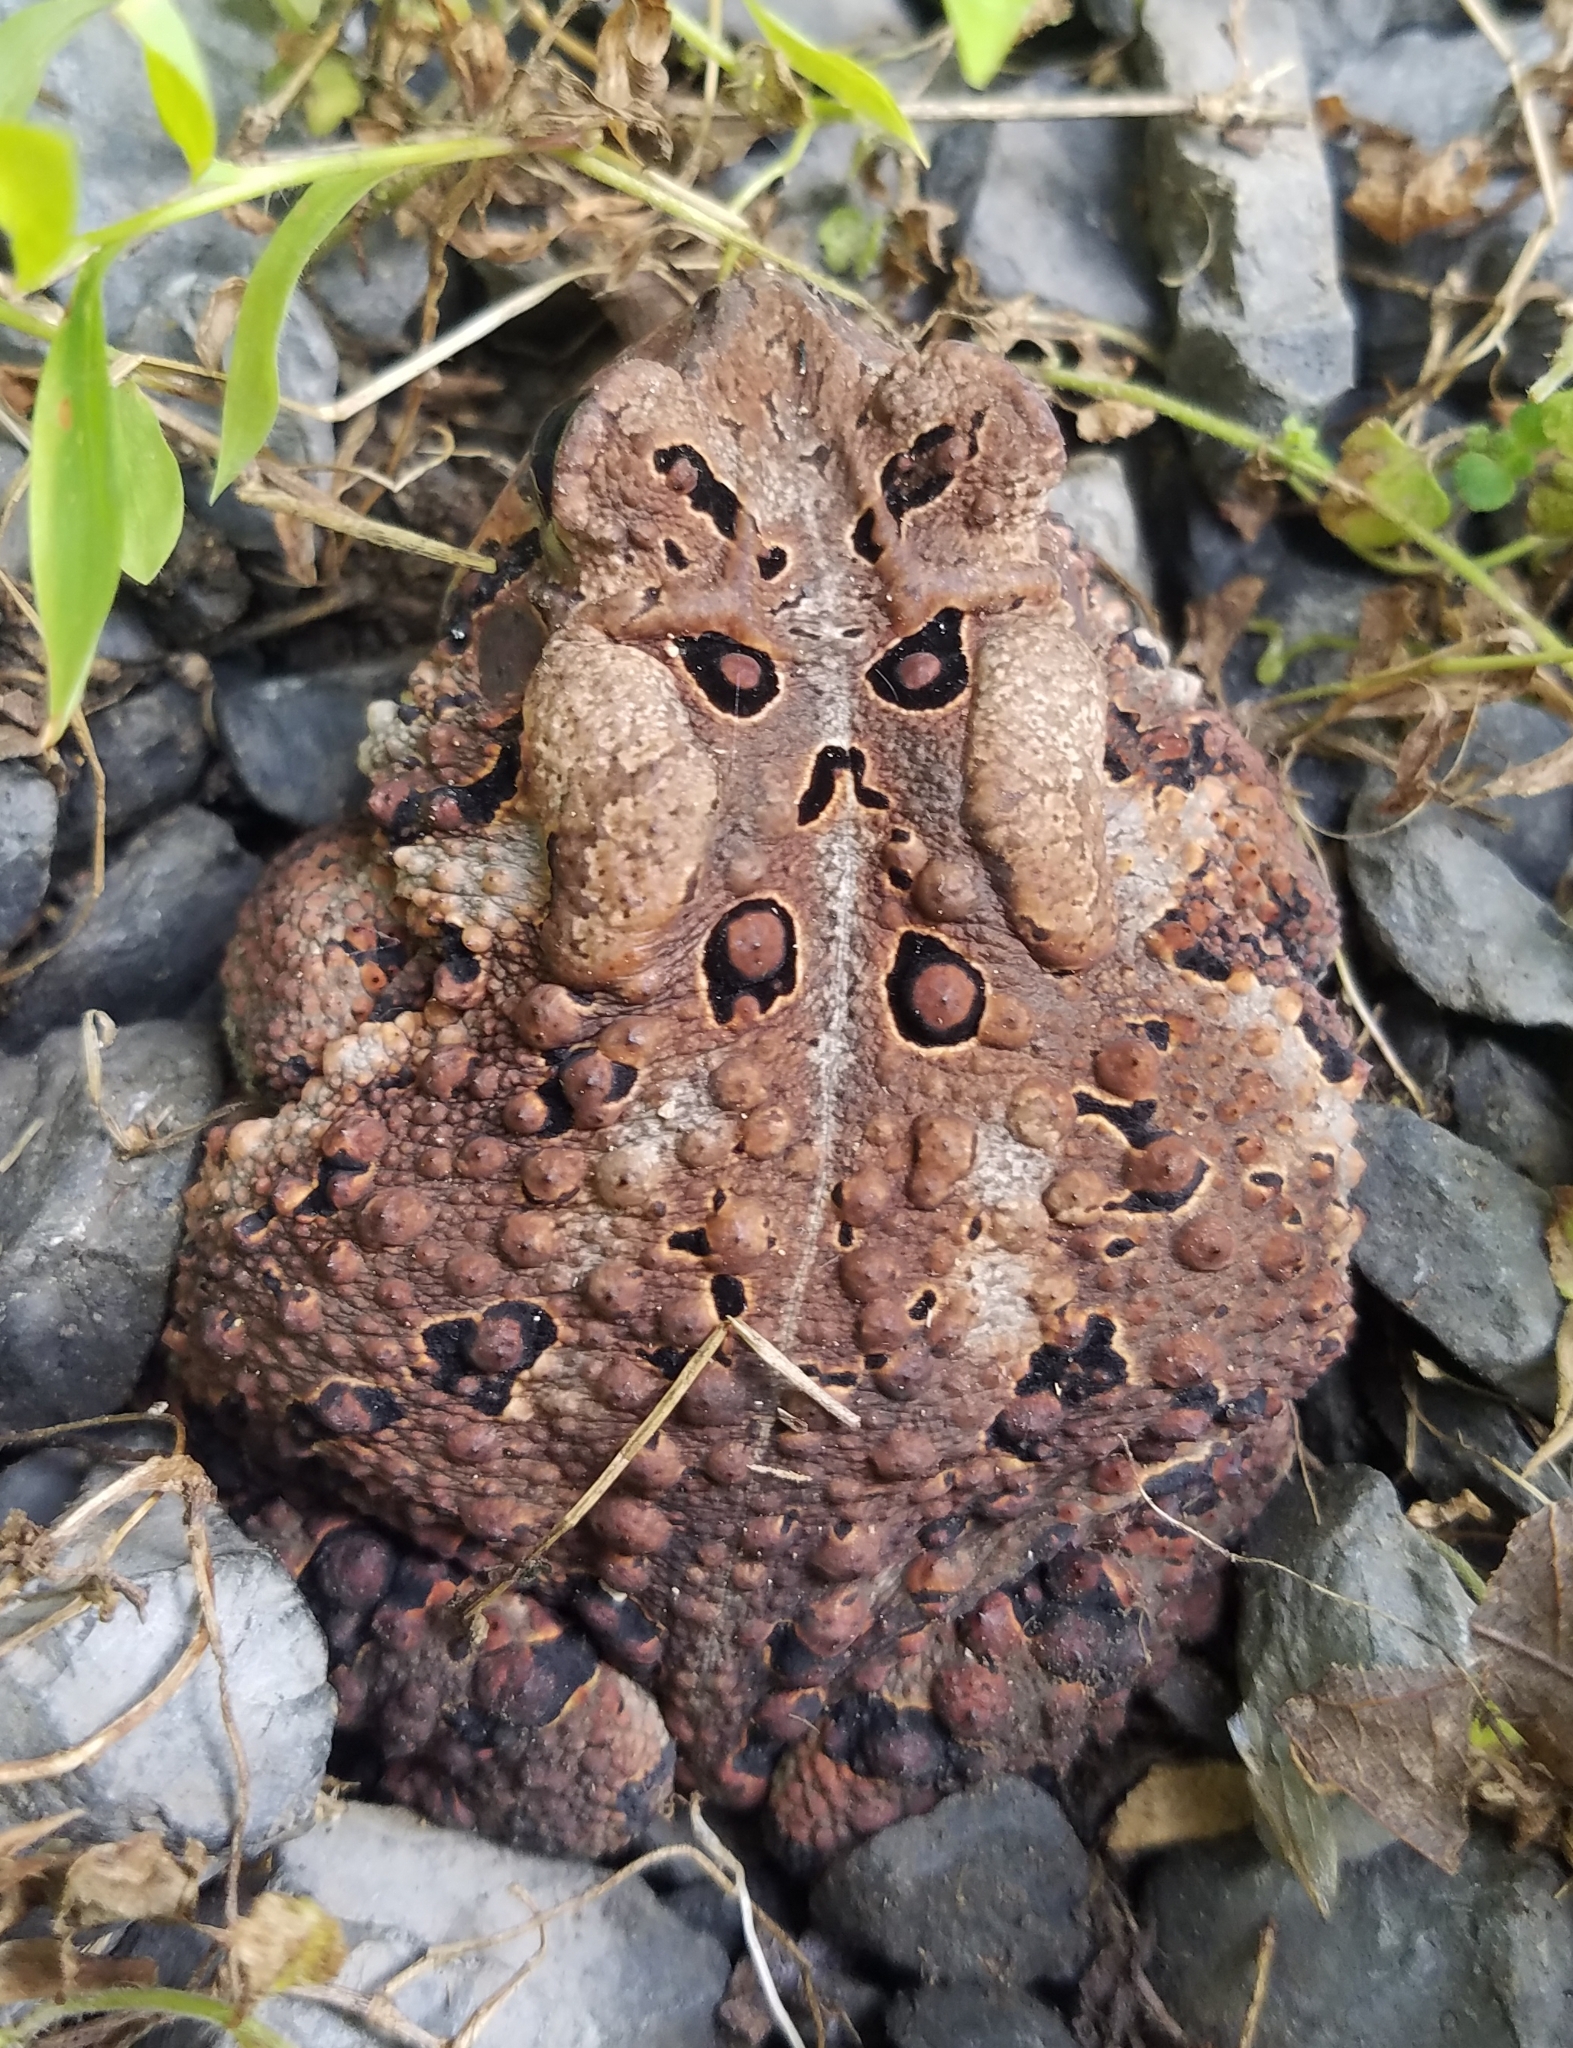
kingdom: Animalia
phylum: Chordata
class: Amphibia
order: Anura
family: Bufonidae
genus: Anaxyrus
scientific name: Anaxyrus americanus
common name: American toad
